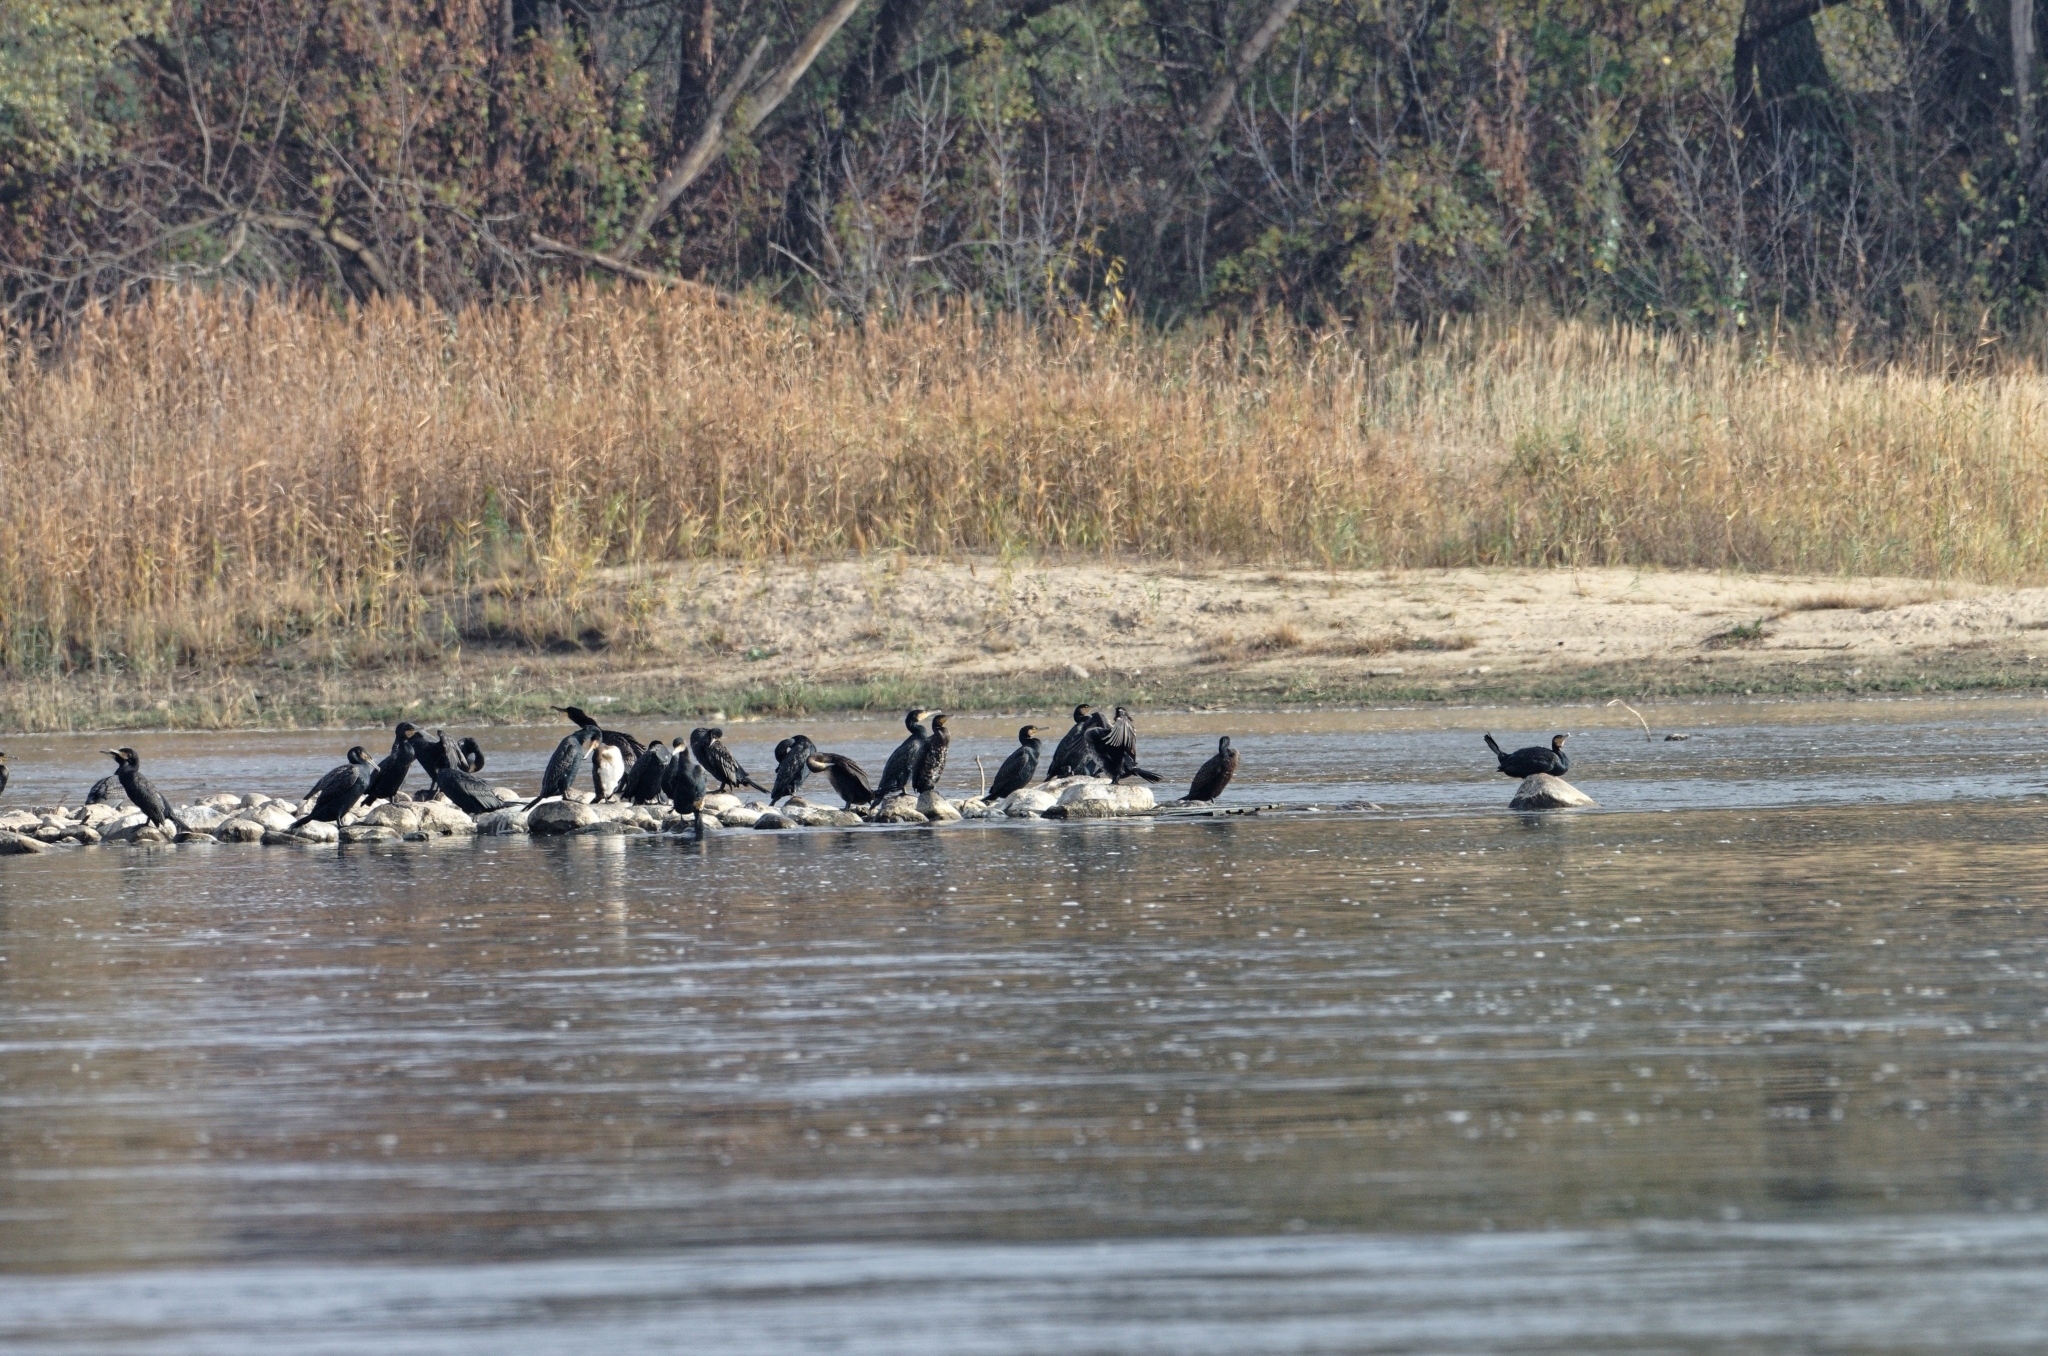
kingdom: Animalia
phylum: Chordata
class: Aves
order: Suliformes
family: Phalacrocoracidae
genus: Phalacrocorax
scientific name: Phalacrocorax carbo
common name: Great cormorant
